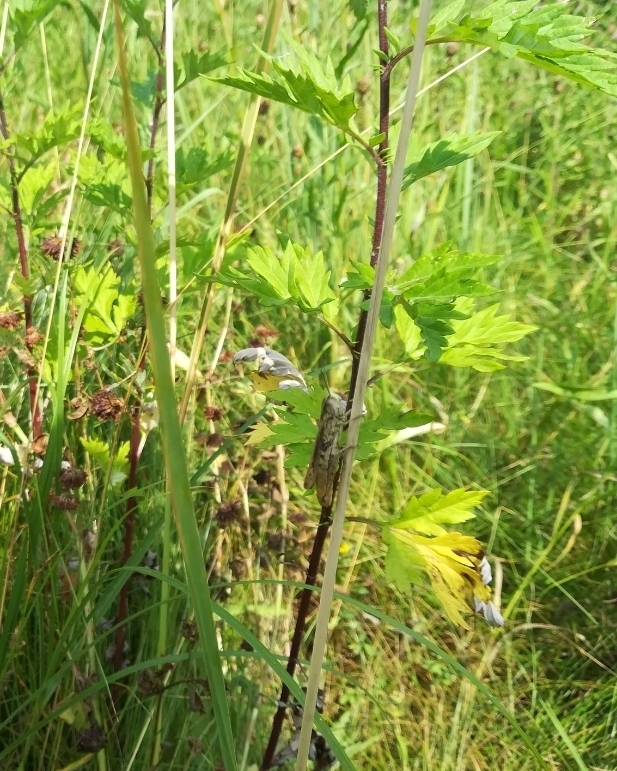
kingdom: Animalia
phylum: Arthropoda
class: Insecta
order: Orthoptera
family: Acrididae
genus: Chorthippus
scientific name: Chorthippus apricarius
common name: Upland field grasshopper
